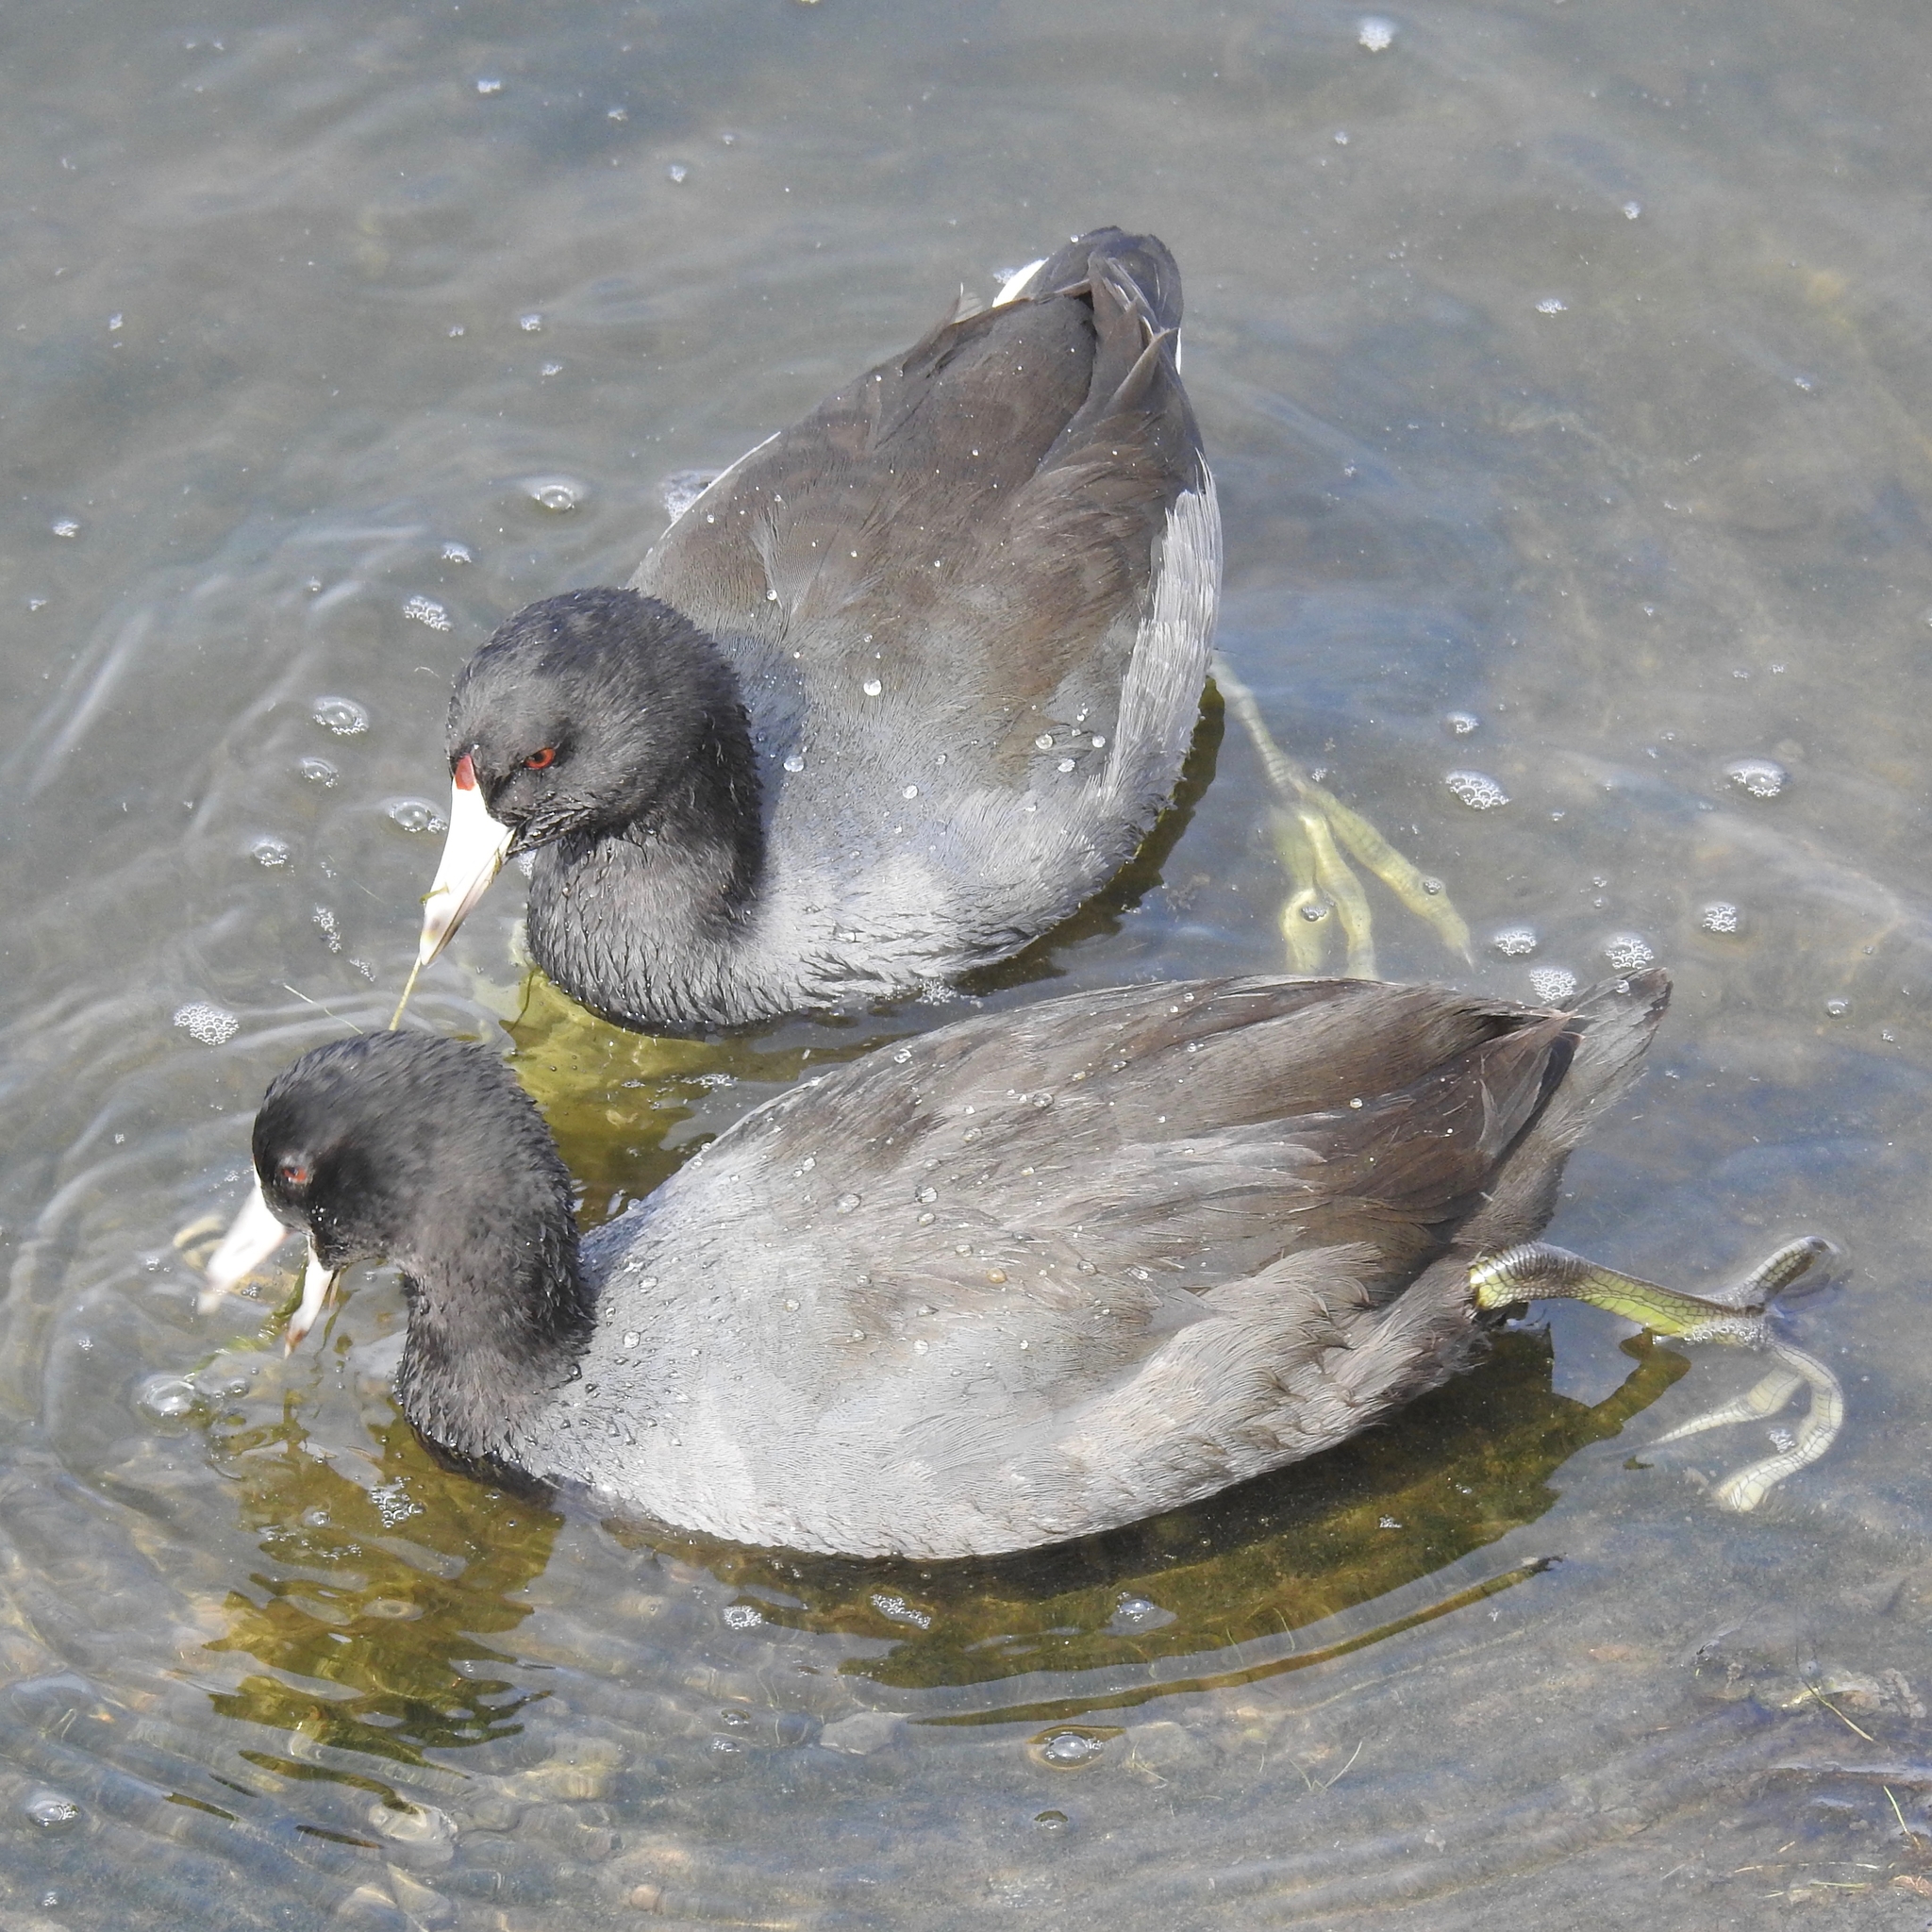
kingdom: Animalia
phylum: Chordata
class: Aves
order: Gruiformes
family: Rallidae
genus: Fulica
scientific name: Fulica americana
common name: American coot
